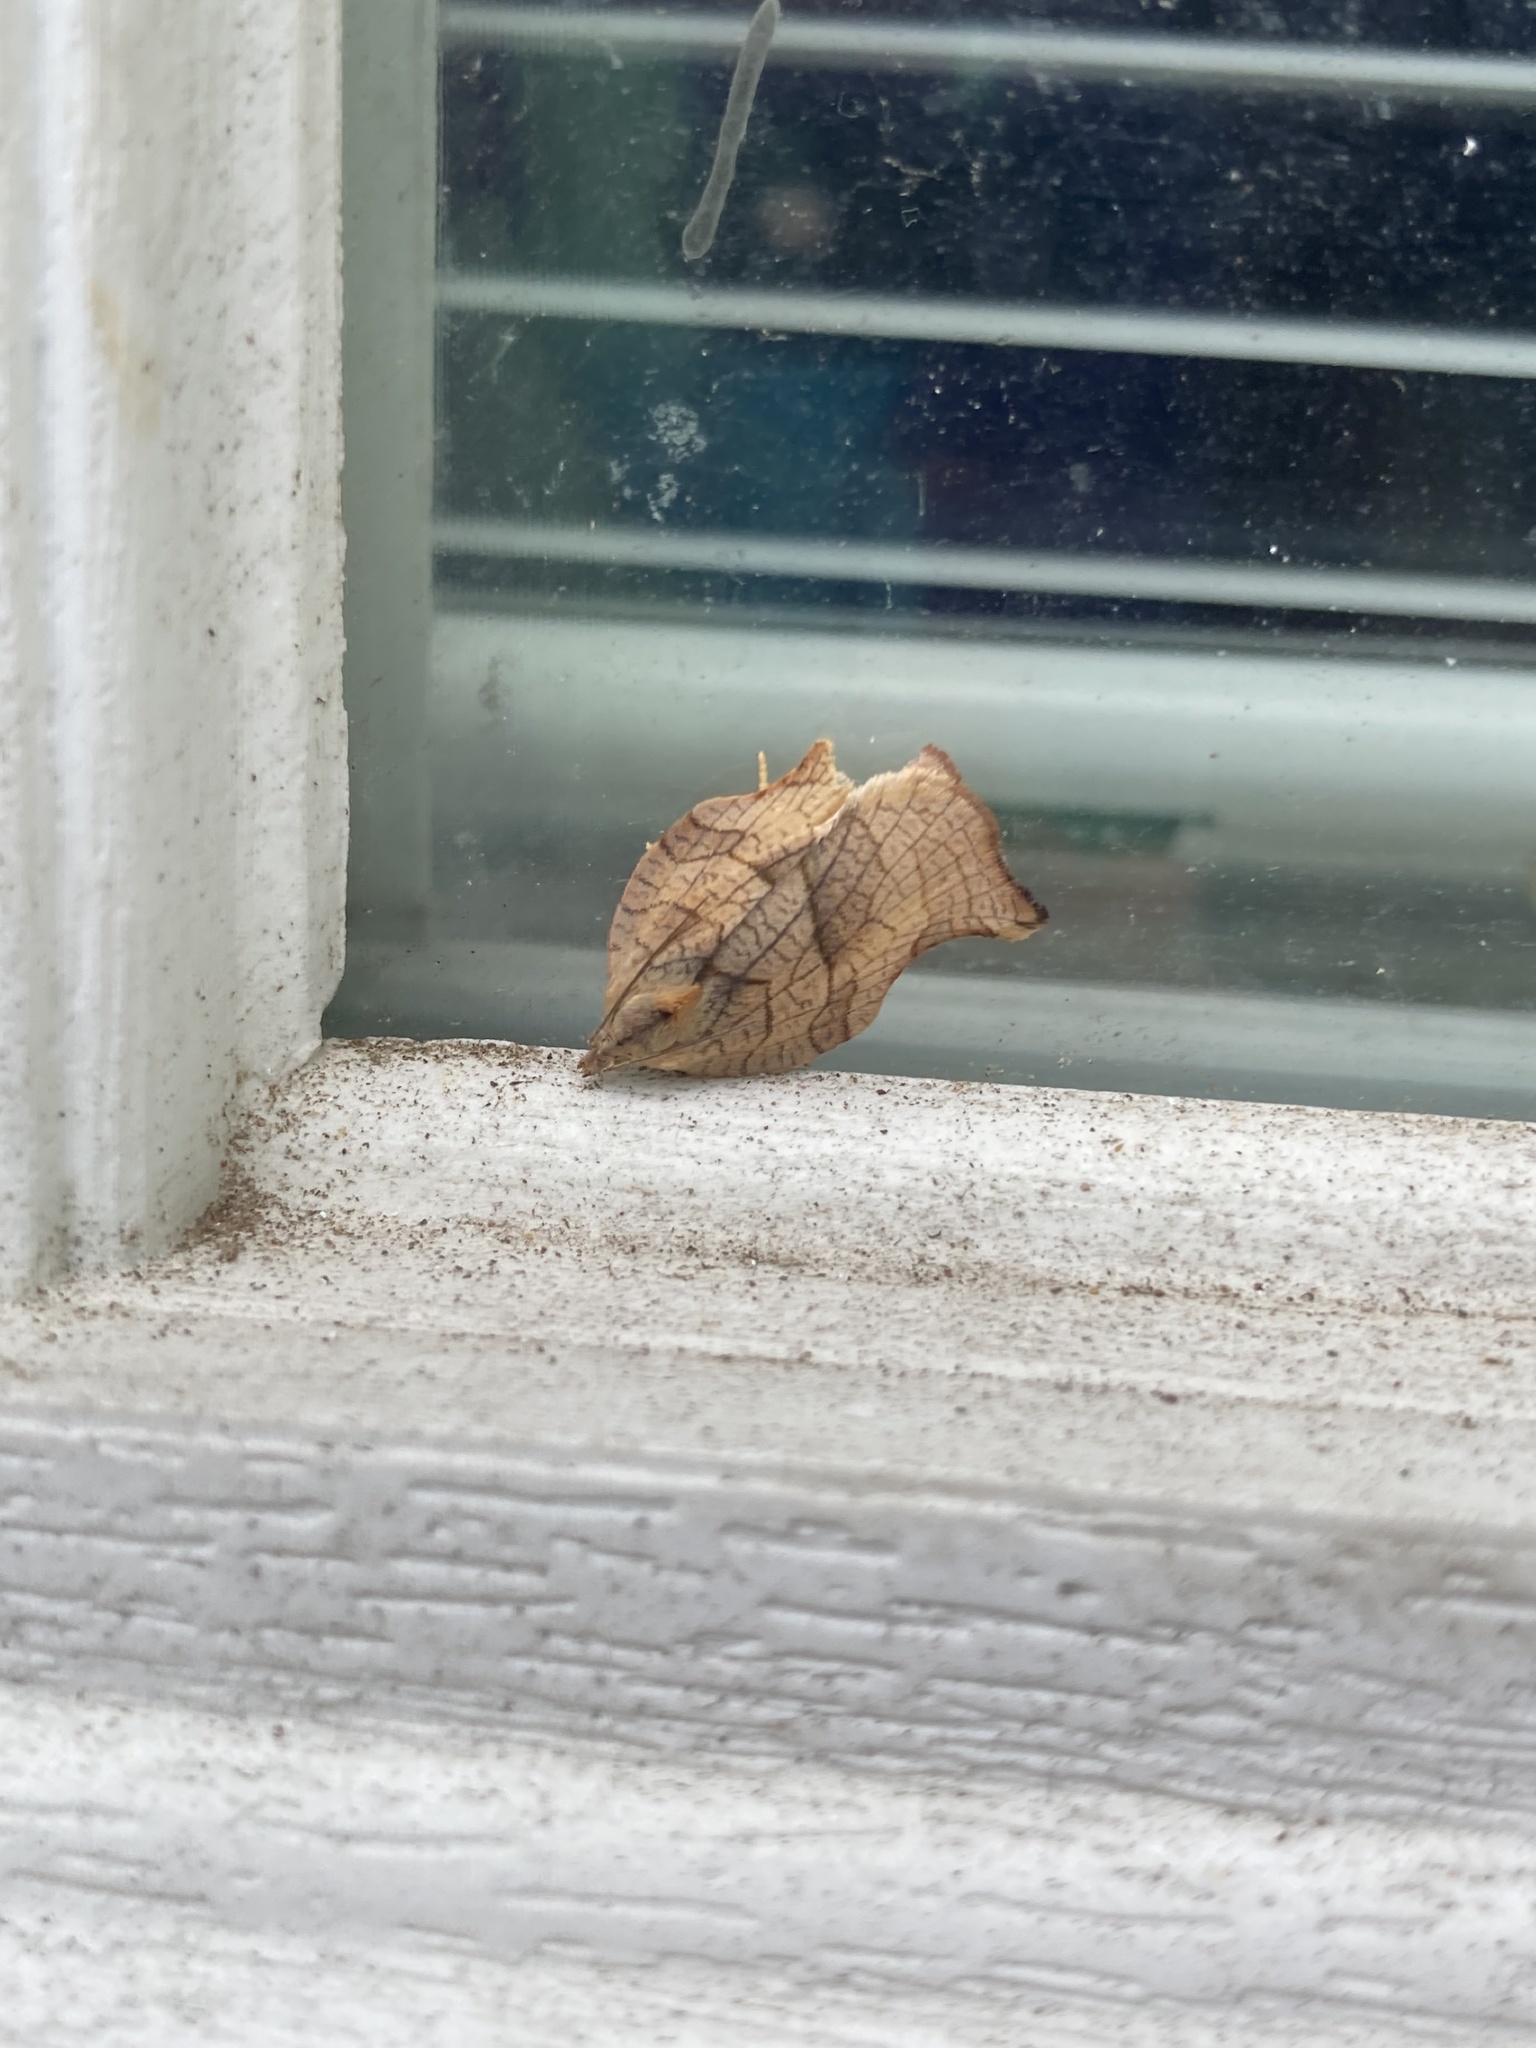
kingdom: Animalia
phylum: Arthropoda
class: Insecta
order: Lepidoptera
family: Tortricidae
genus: Archips
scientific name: Archips purpurana
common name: Omnivorous leafroller
